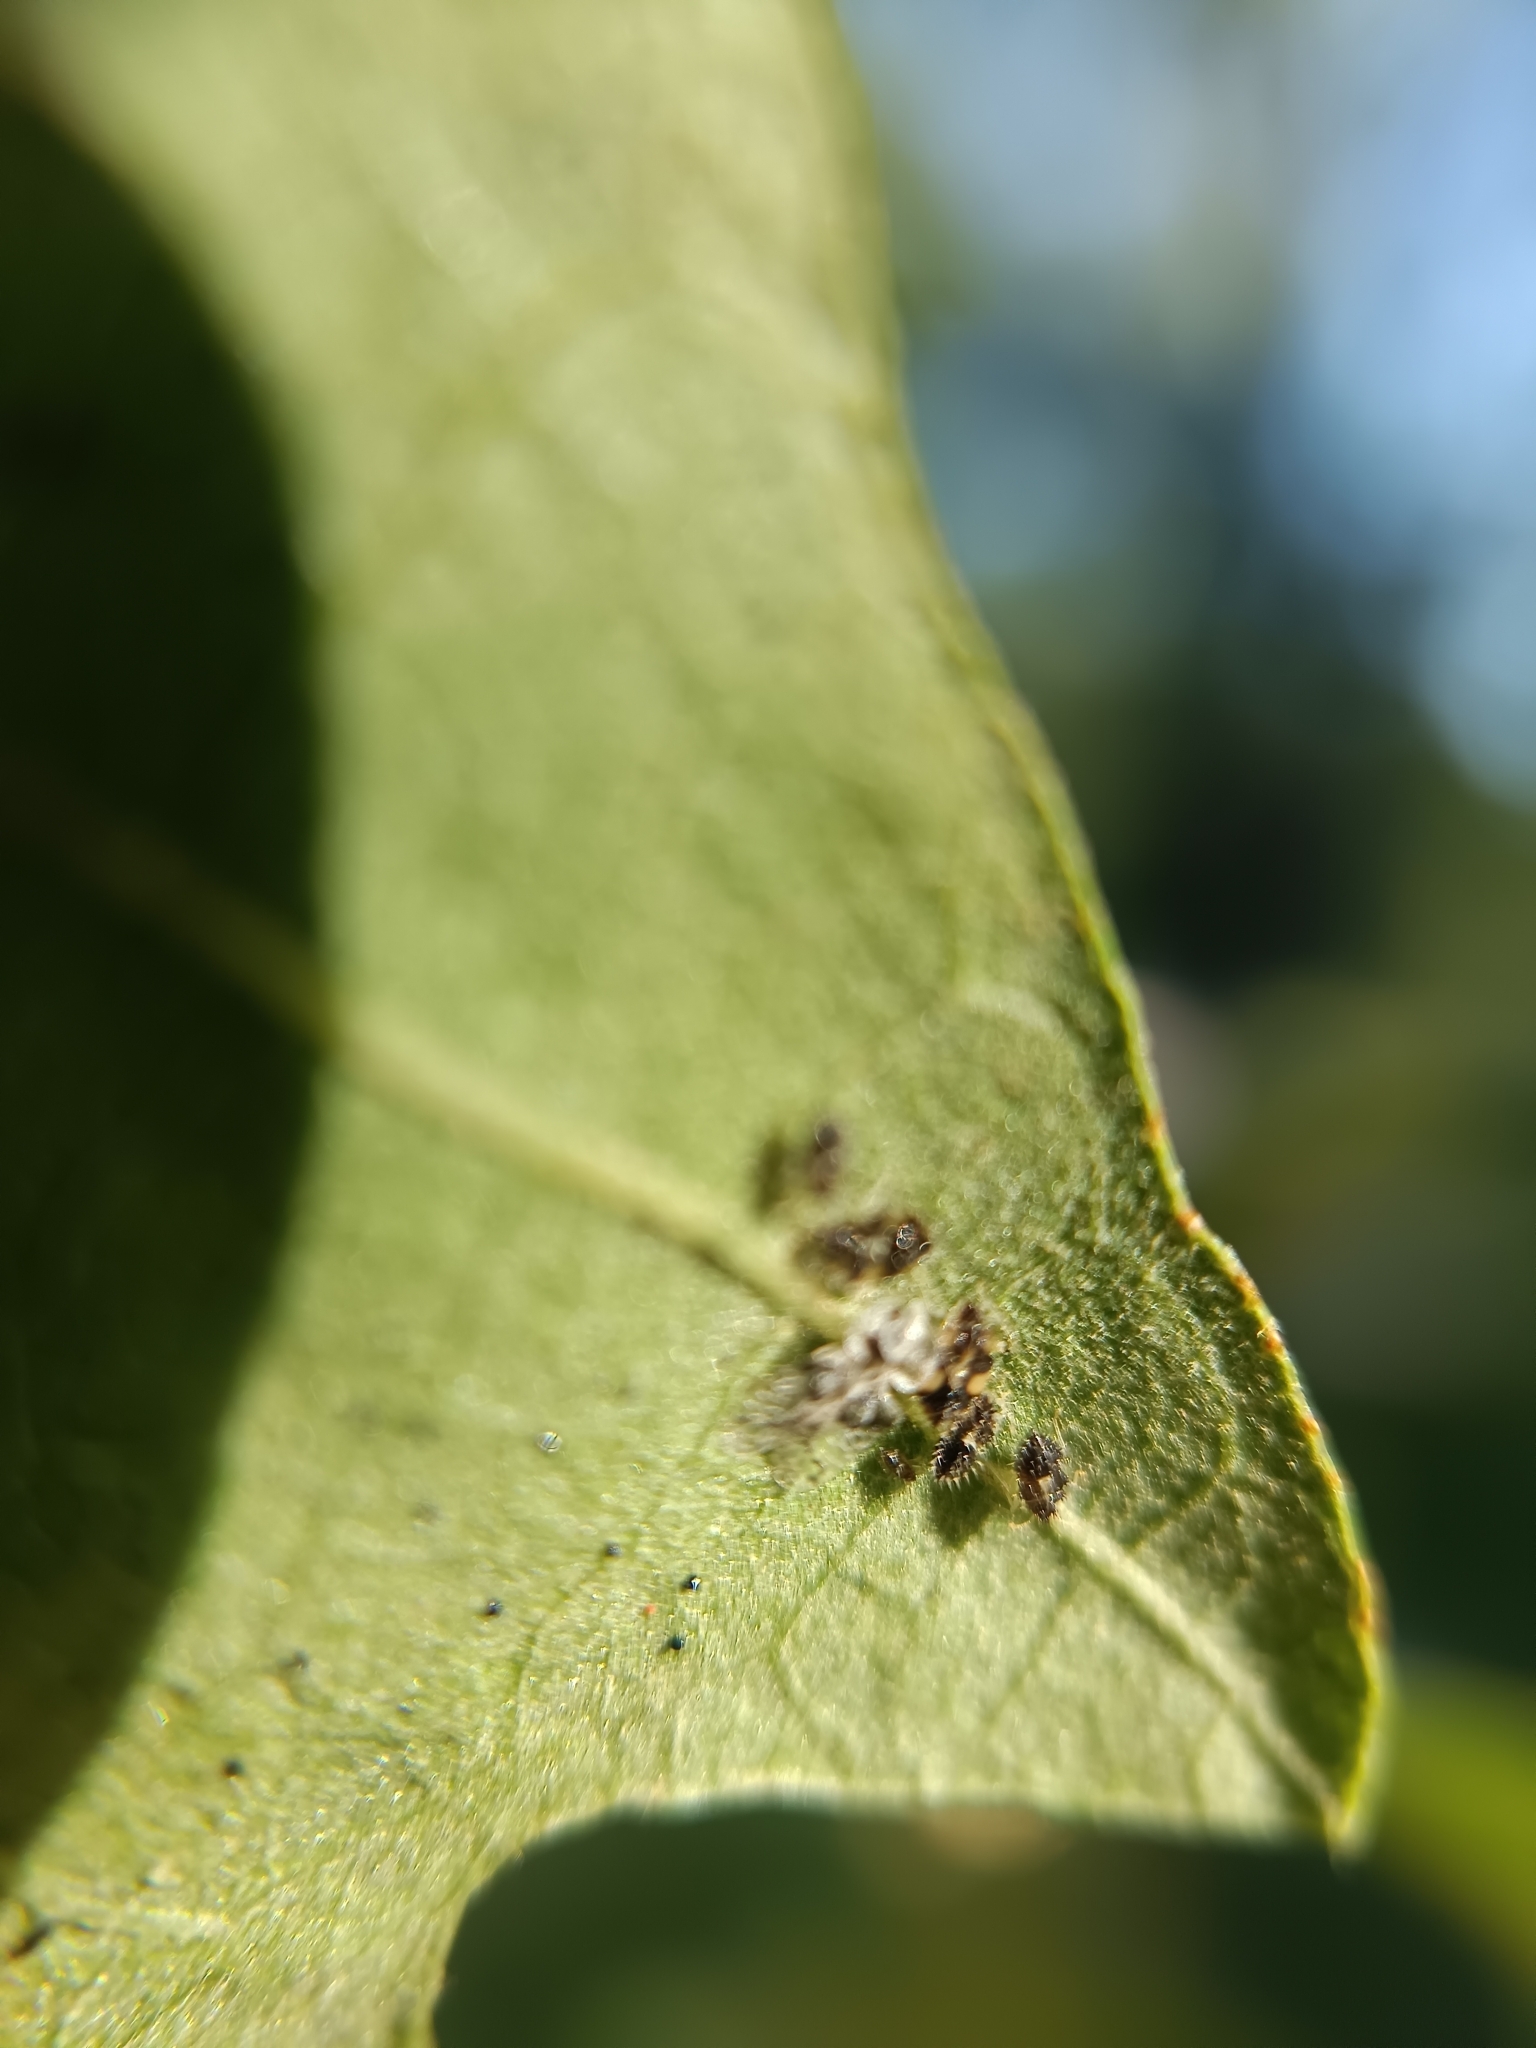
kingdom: Animalia
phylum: Arthropoda
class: Insecta
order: Hemiptera
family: Tingidae
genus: Corythucha
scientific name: Corythucha arcuata
